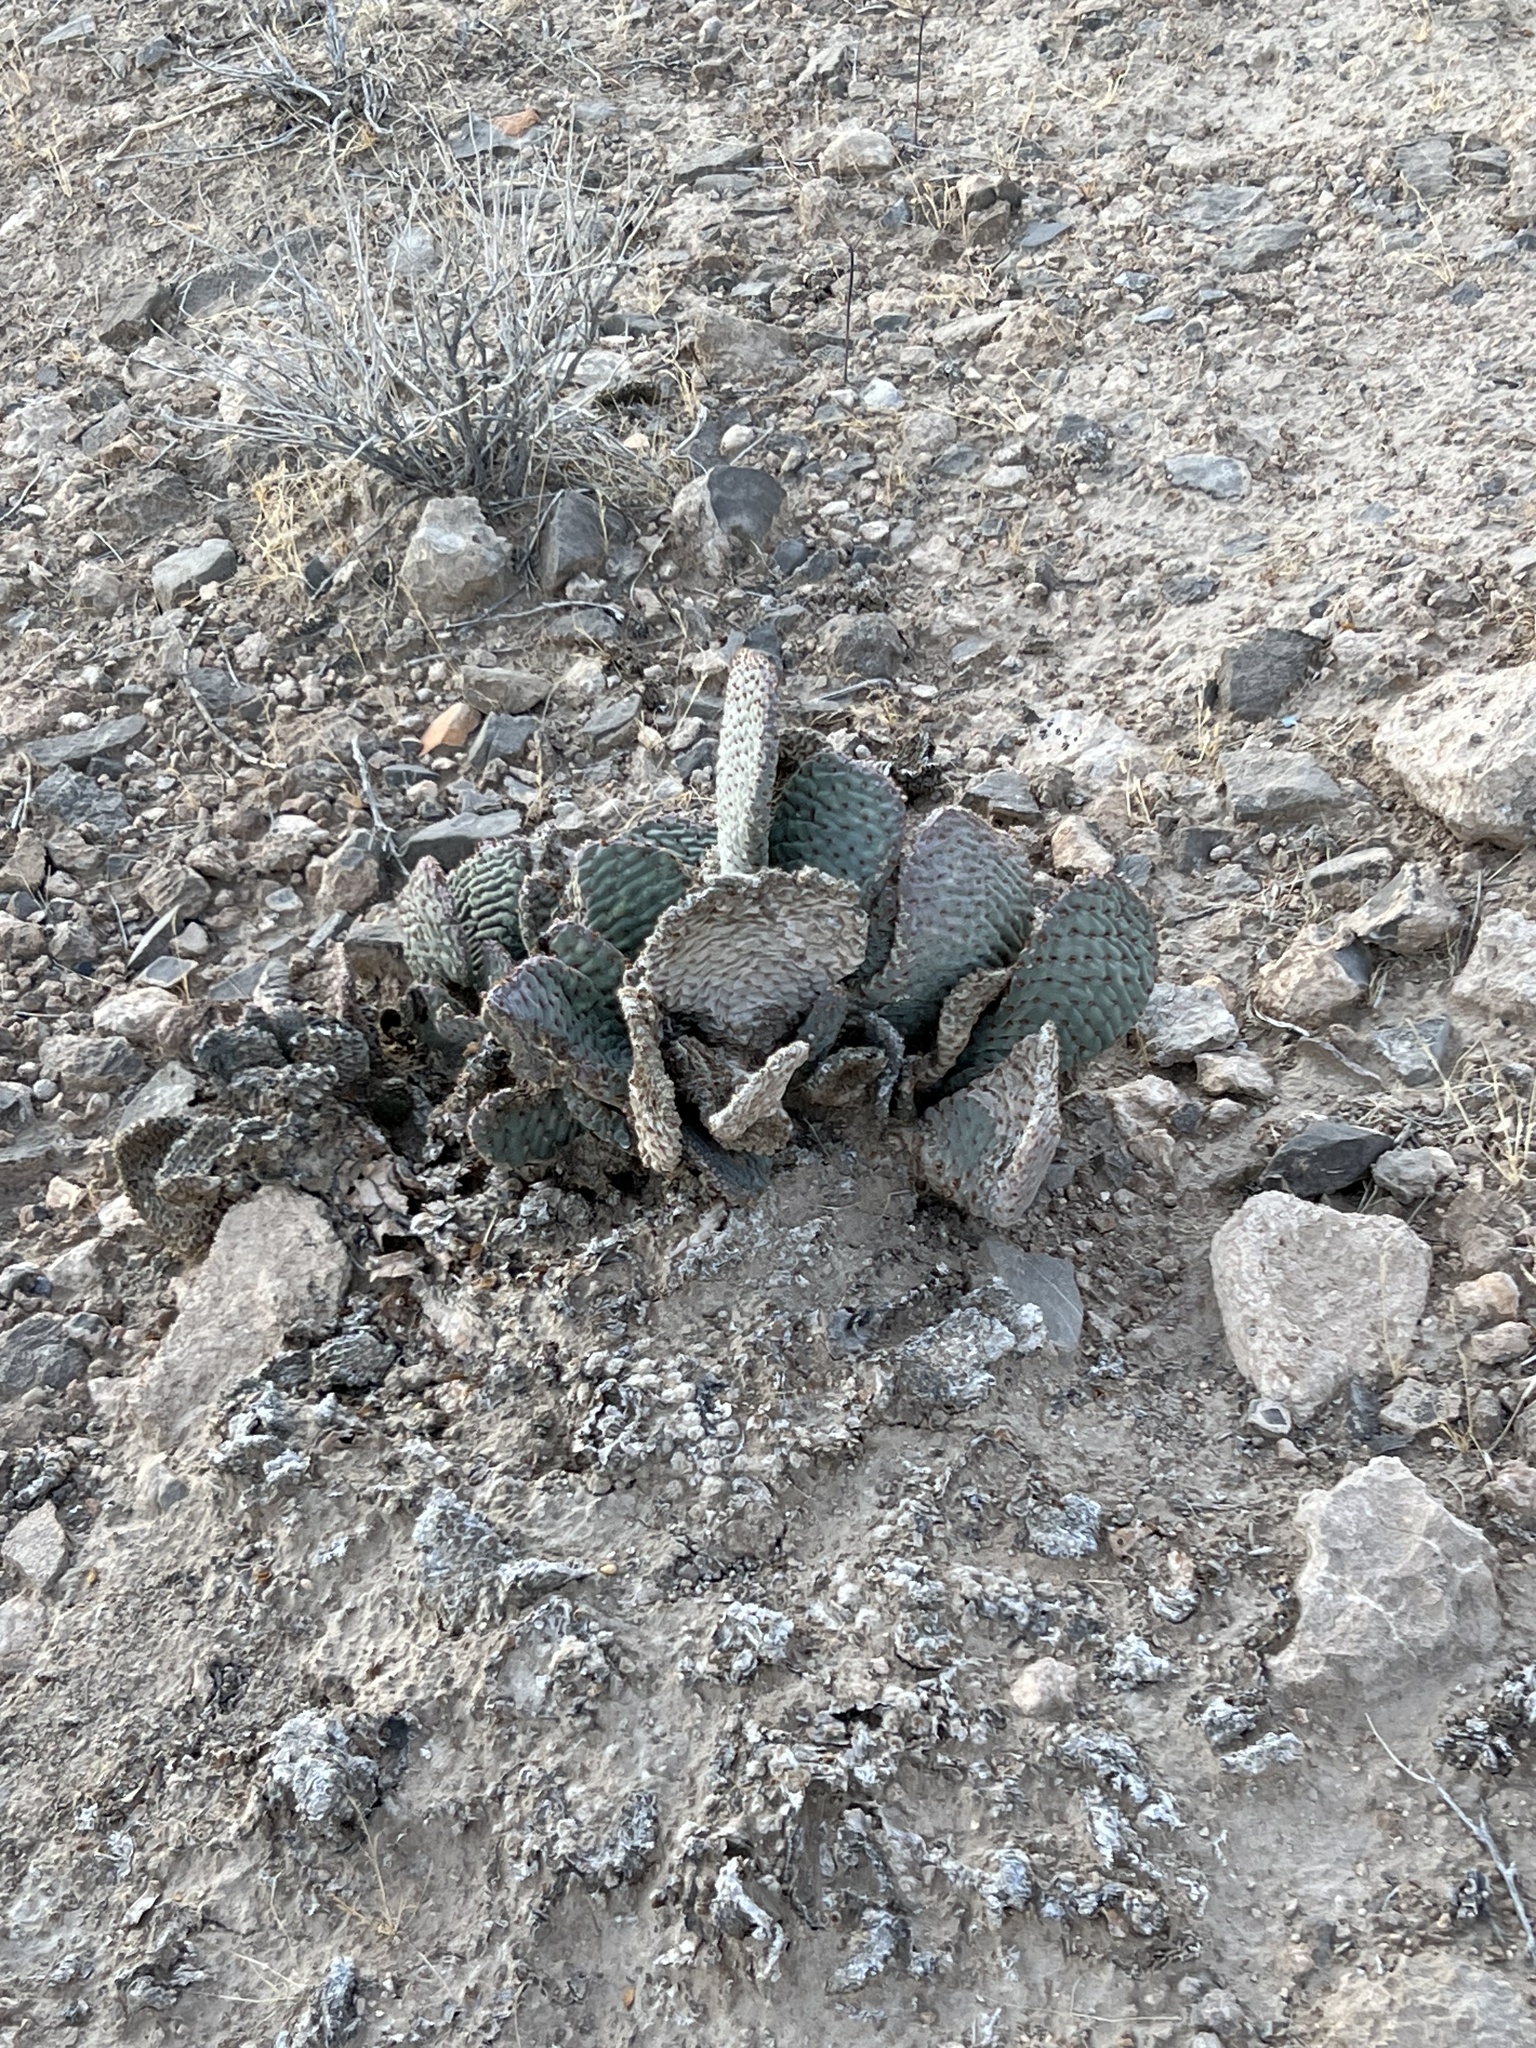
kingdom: Plantae
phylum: Tracheophyta
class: Magnoliopsida
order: Caryophyllales
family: Cactaceae
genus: Opuntia
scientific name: Opuntia basilaris
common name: Beavertail prickly-pear
